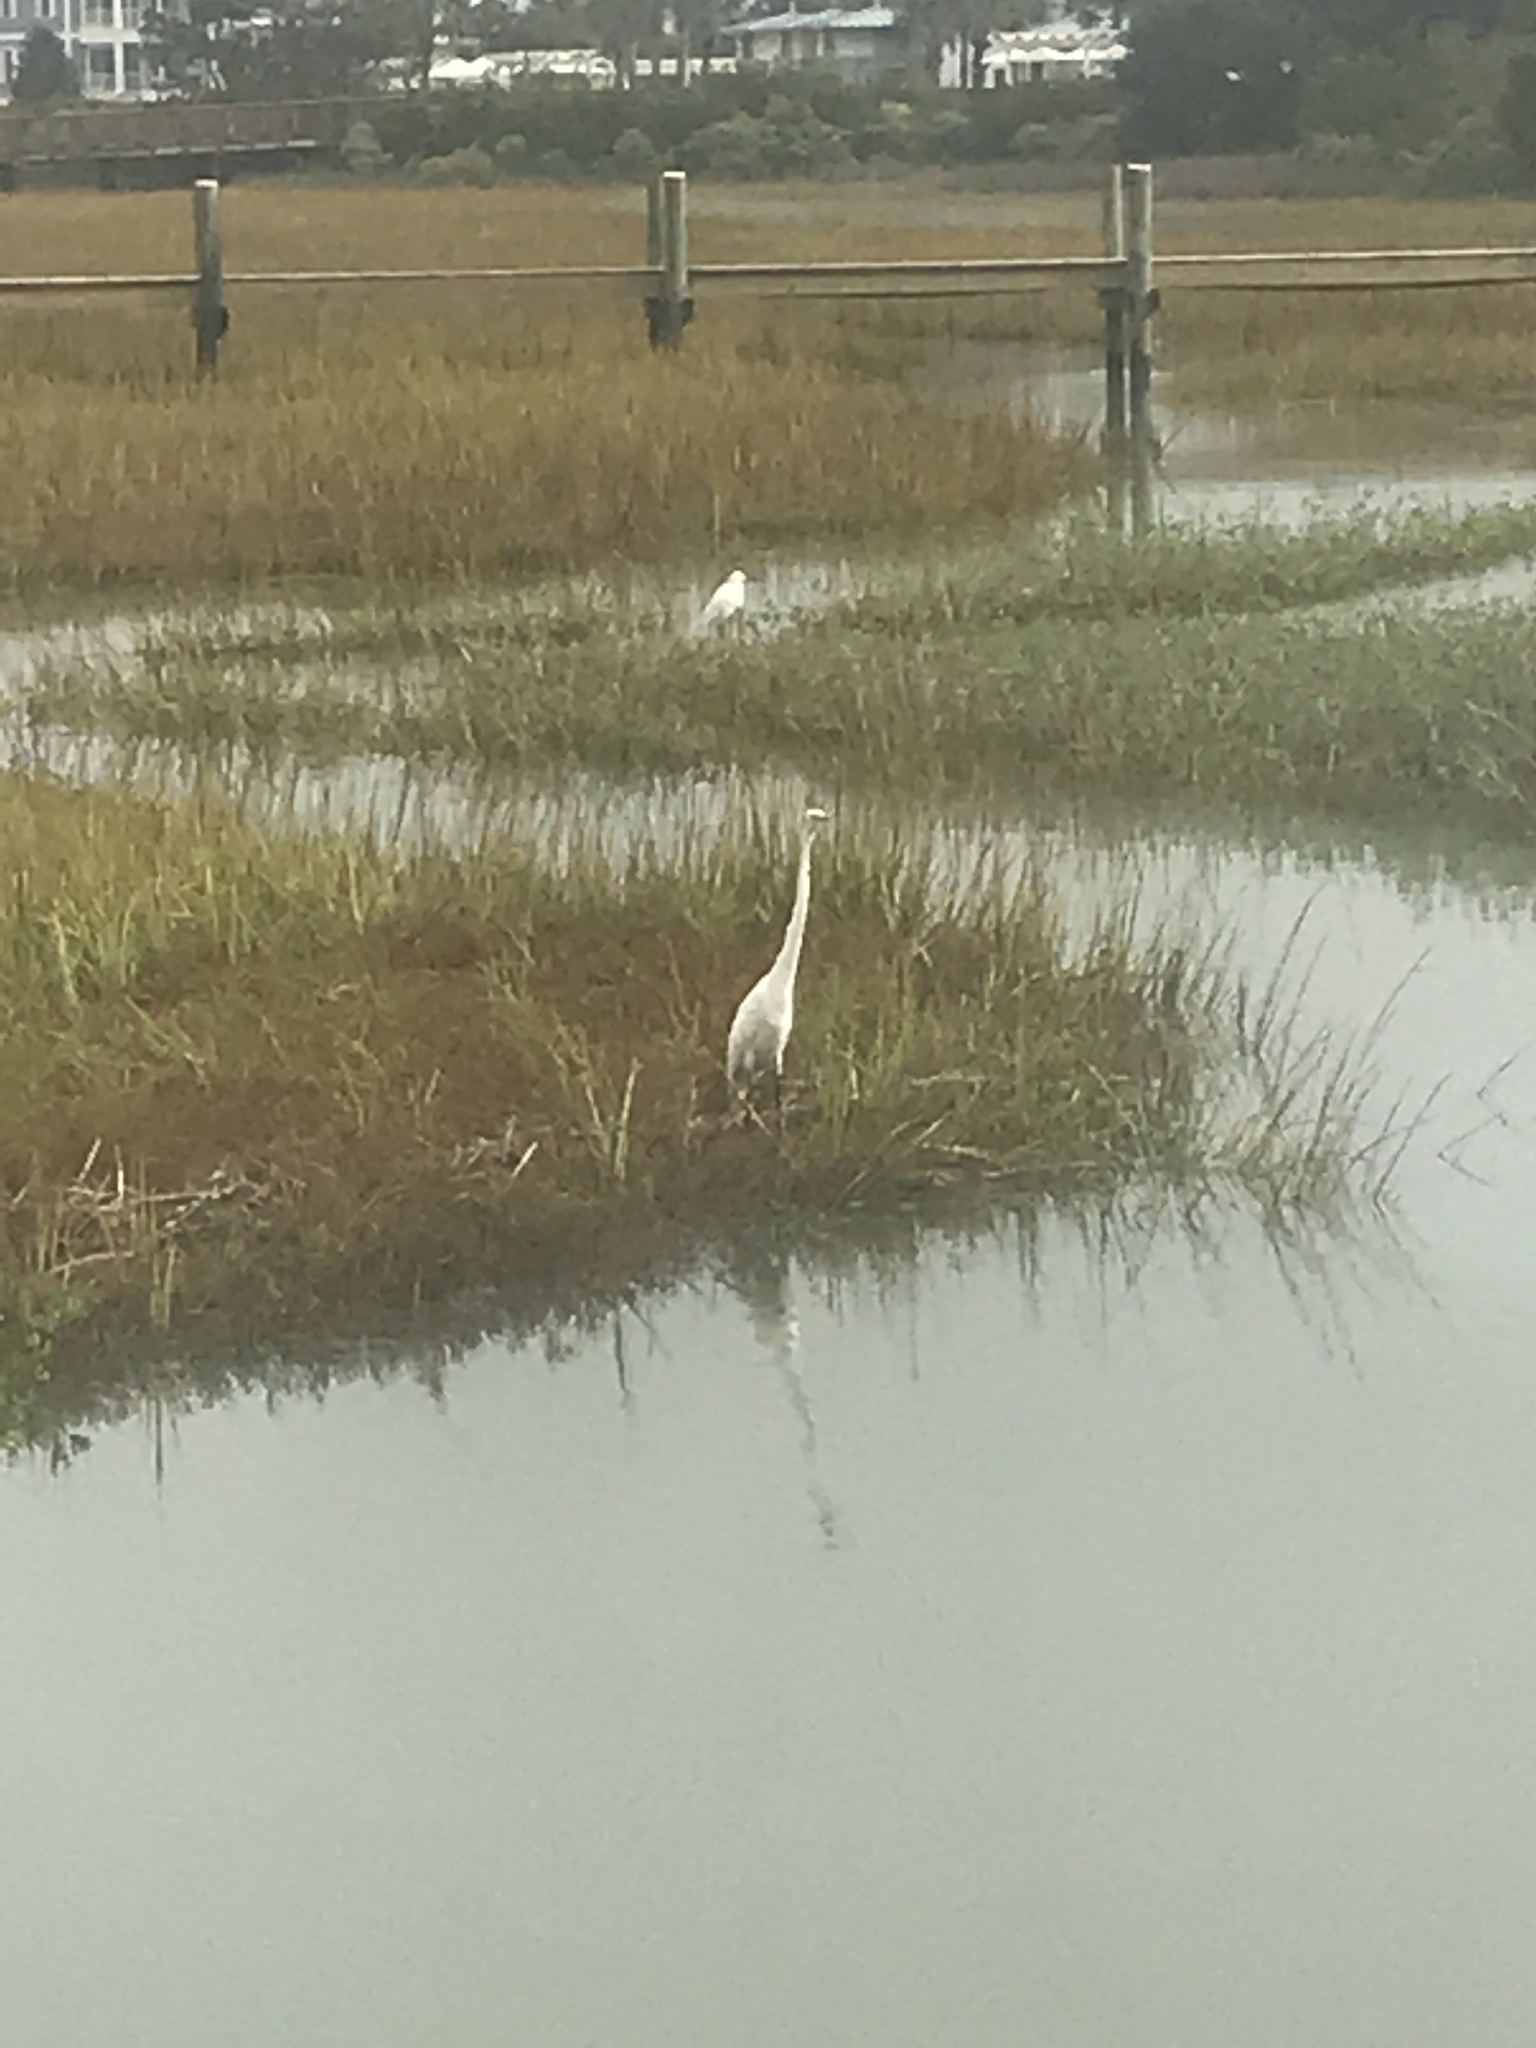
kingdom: Animalia
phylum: Chordata
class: Aves
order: Pelecaniformes
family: Ardeidae
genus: Ardea
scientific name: Ardea alba
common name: Great egret
